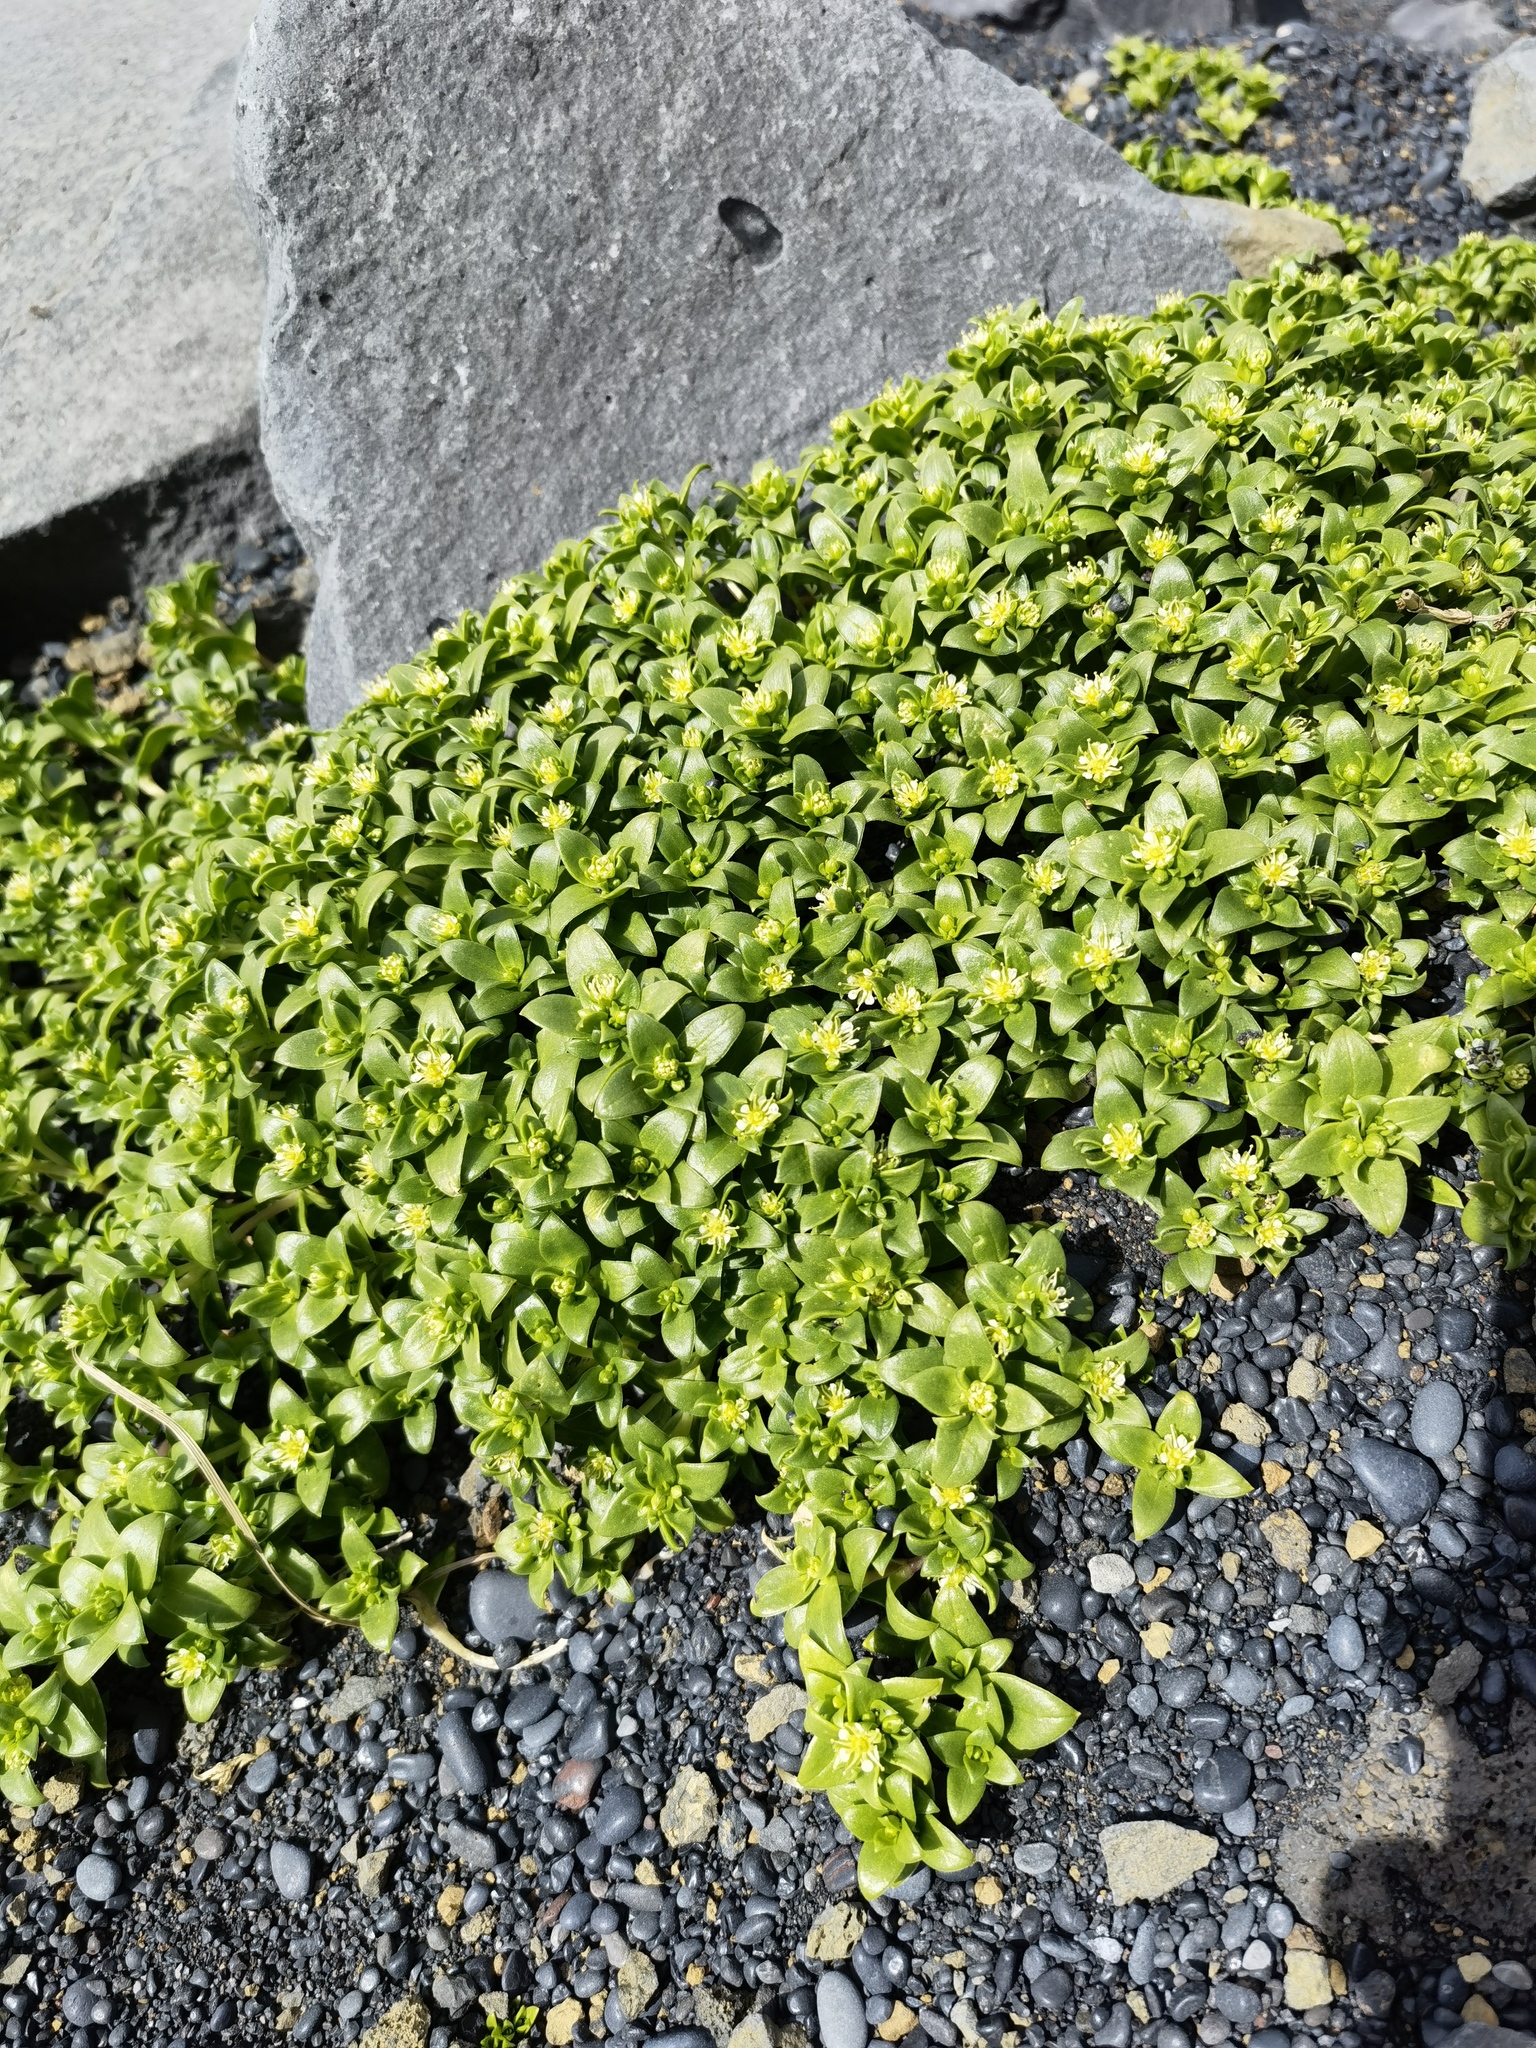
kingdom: Plantae
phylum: Tracheophyta
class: Magnoliopsida
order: Caryophyllales
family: Caryophyllaceae
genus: Honckenya
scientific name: Honckenya peploides
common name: Sea sandwort
